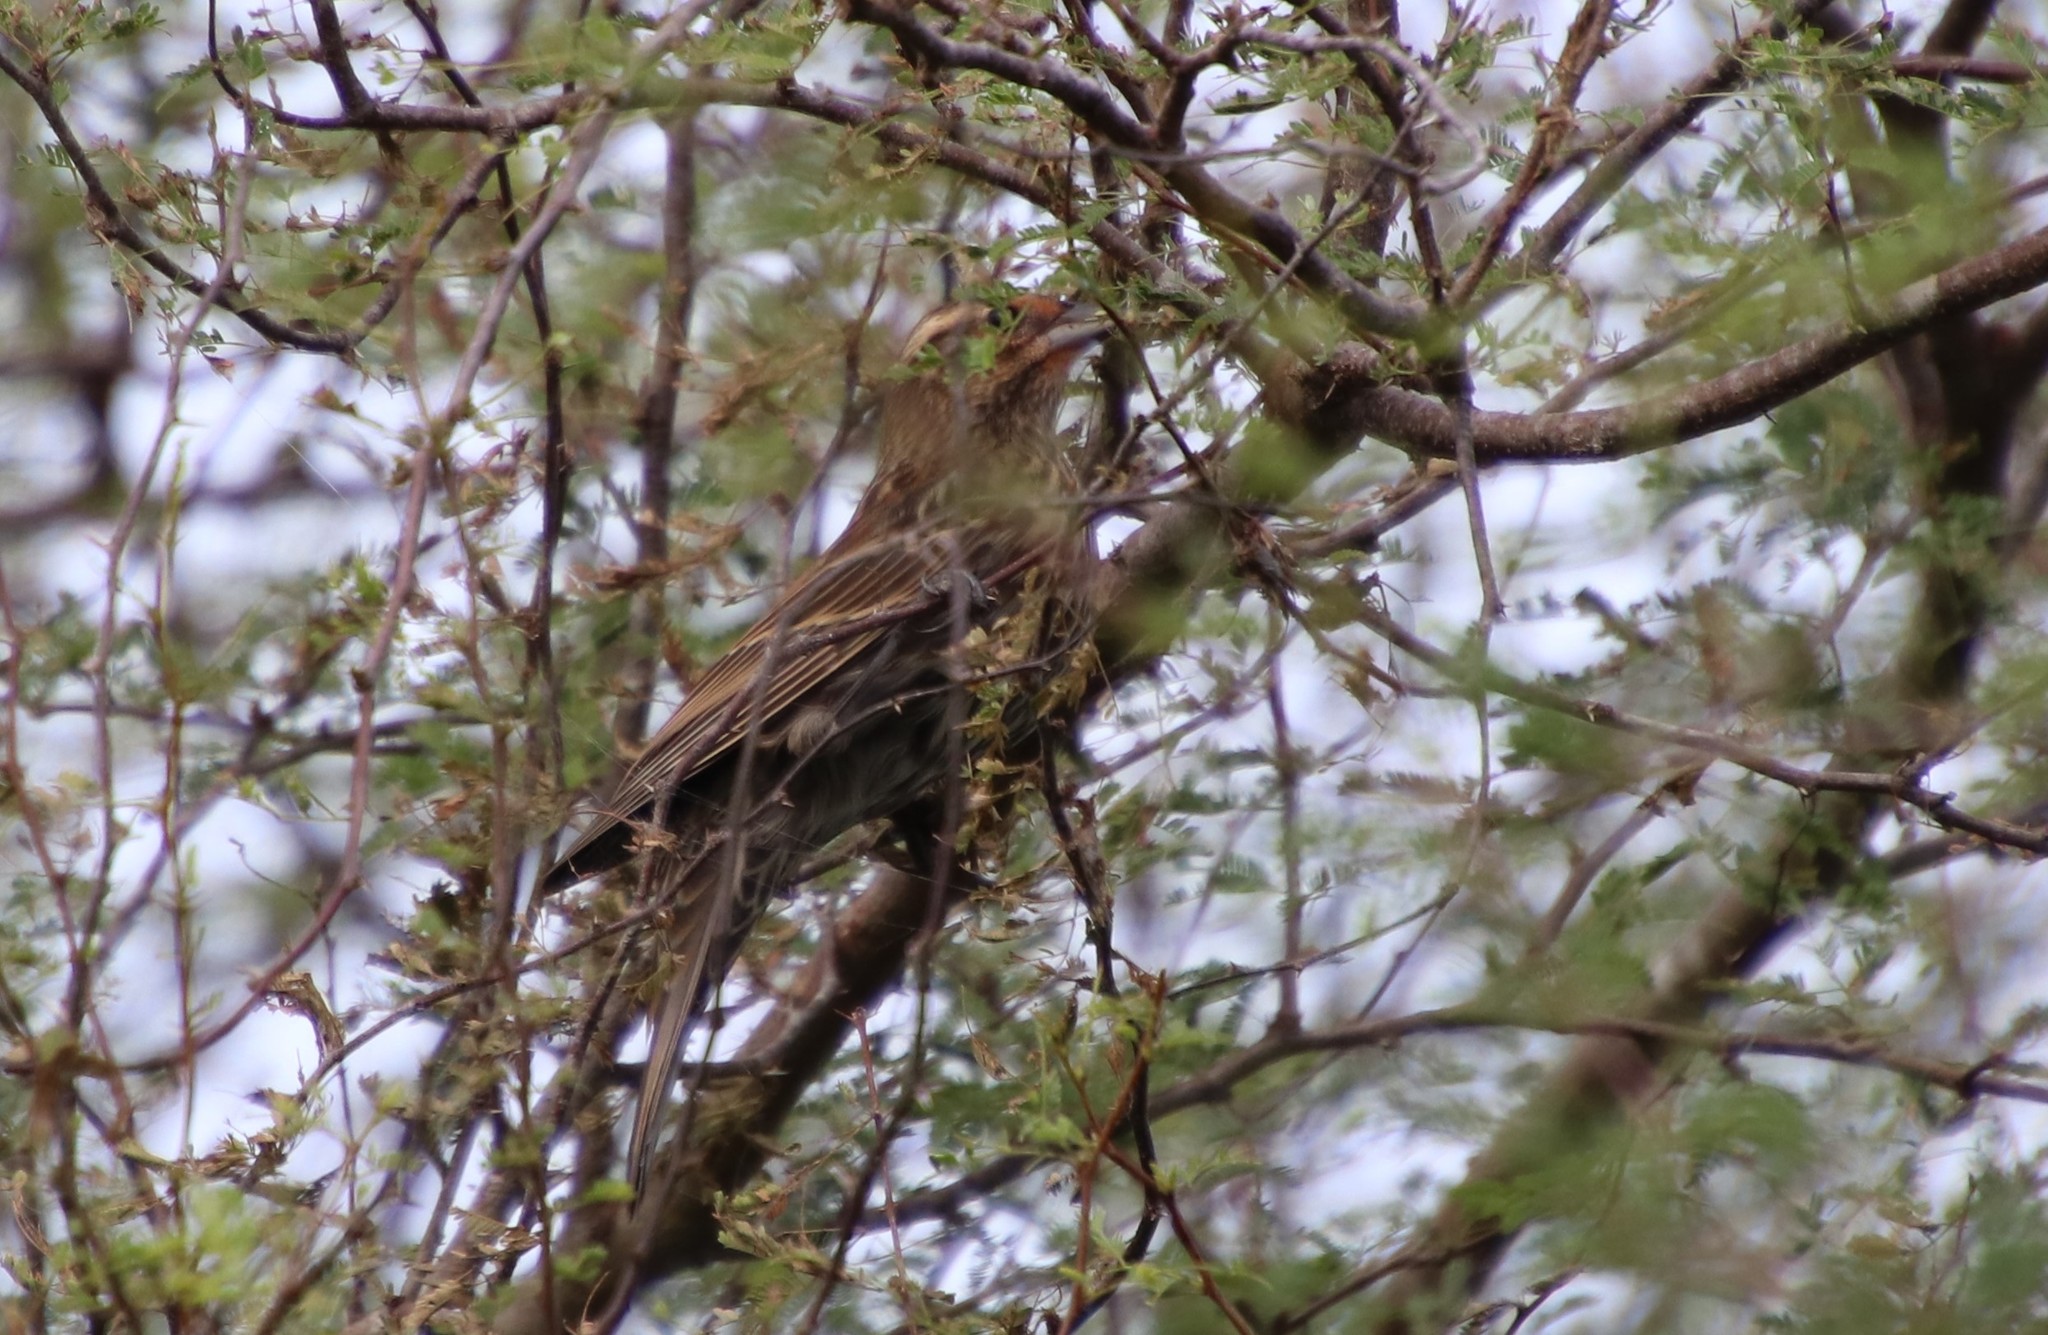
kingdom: Animalia
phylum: Chordata
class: Aves
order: Passeriformes
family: Icteridae
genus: Agelaius
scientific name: Agelaius phoeniceus
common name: Red-winged blackbird
